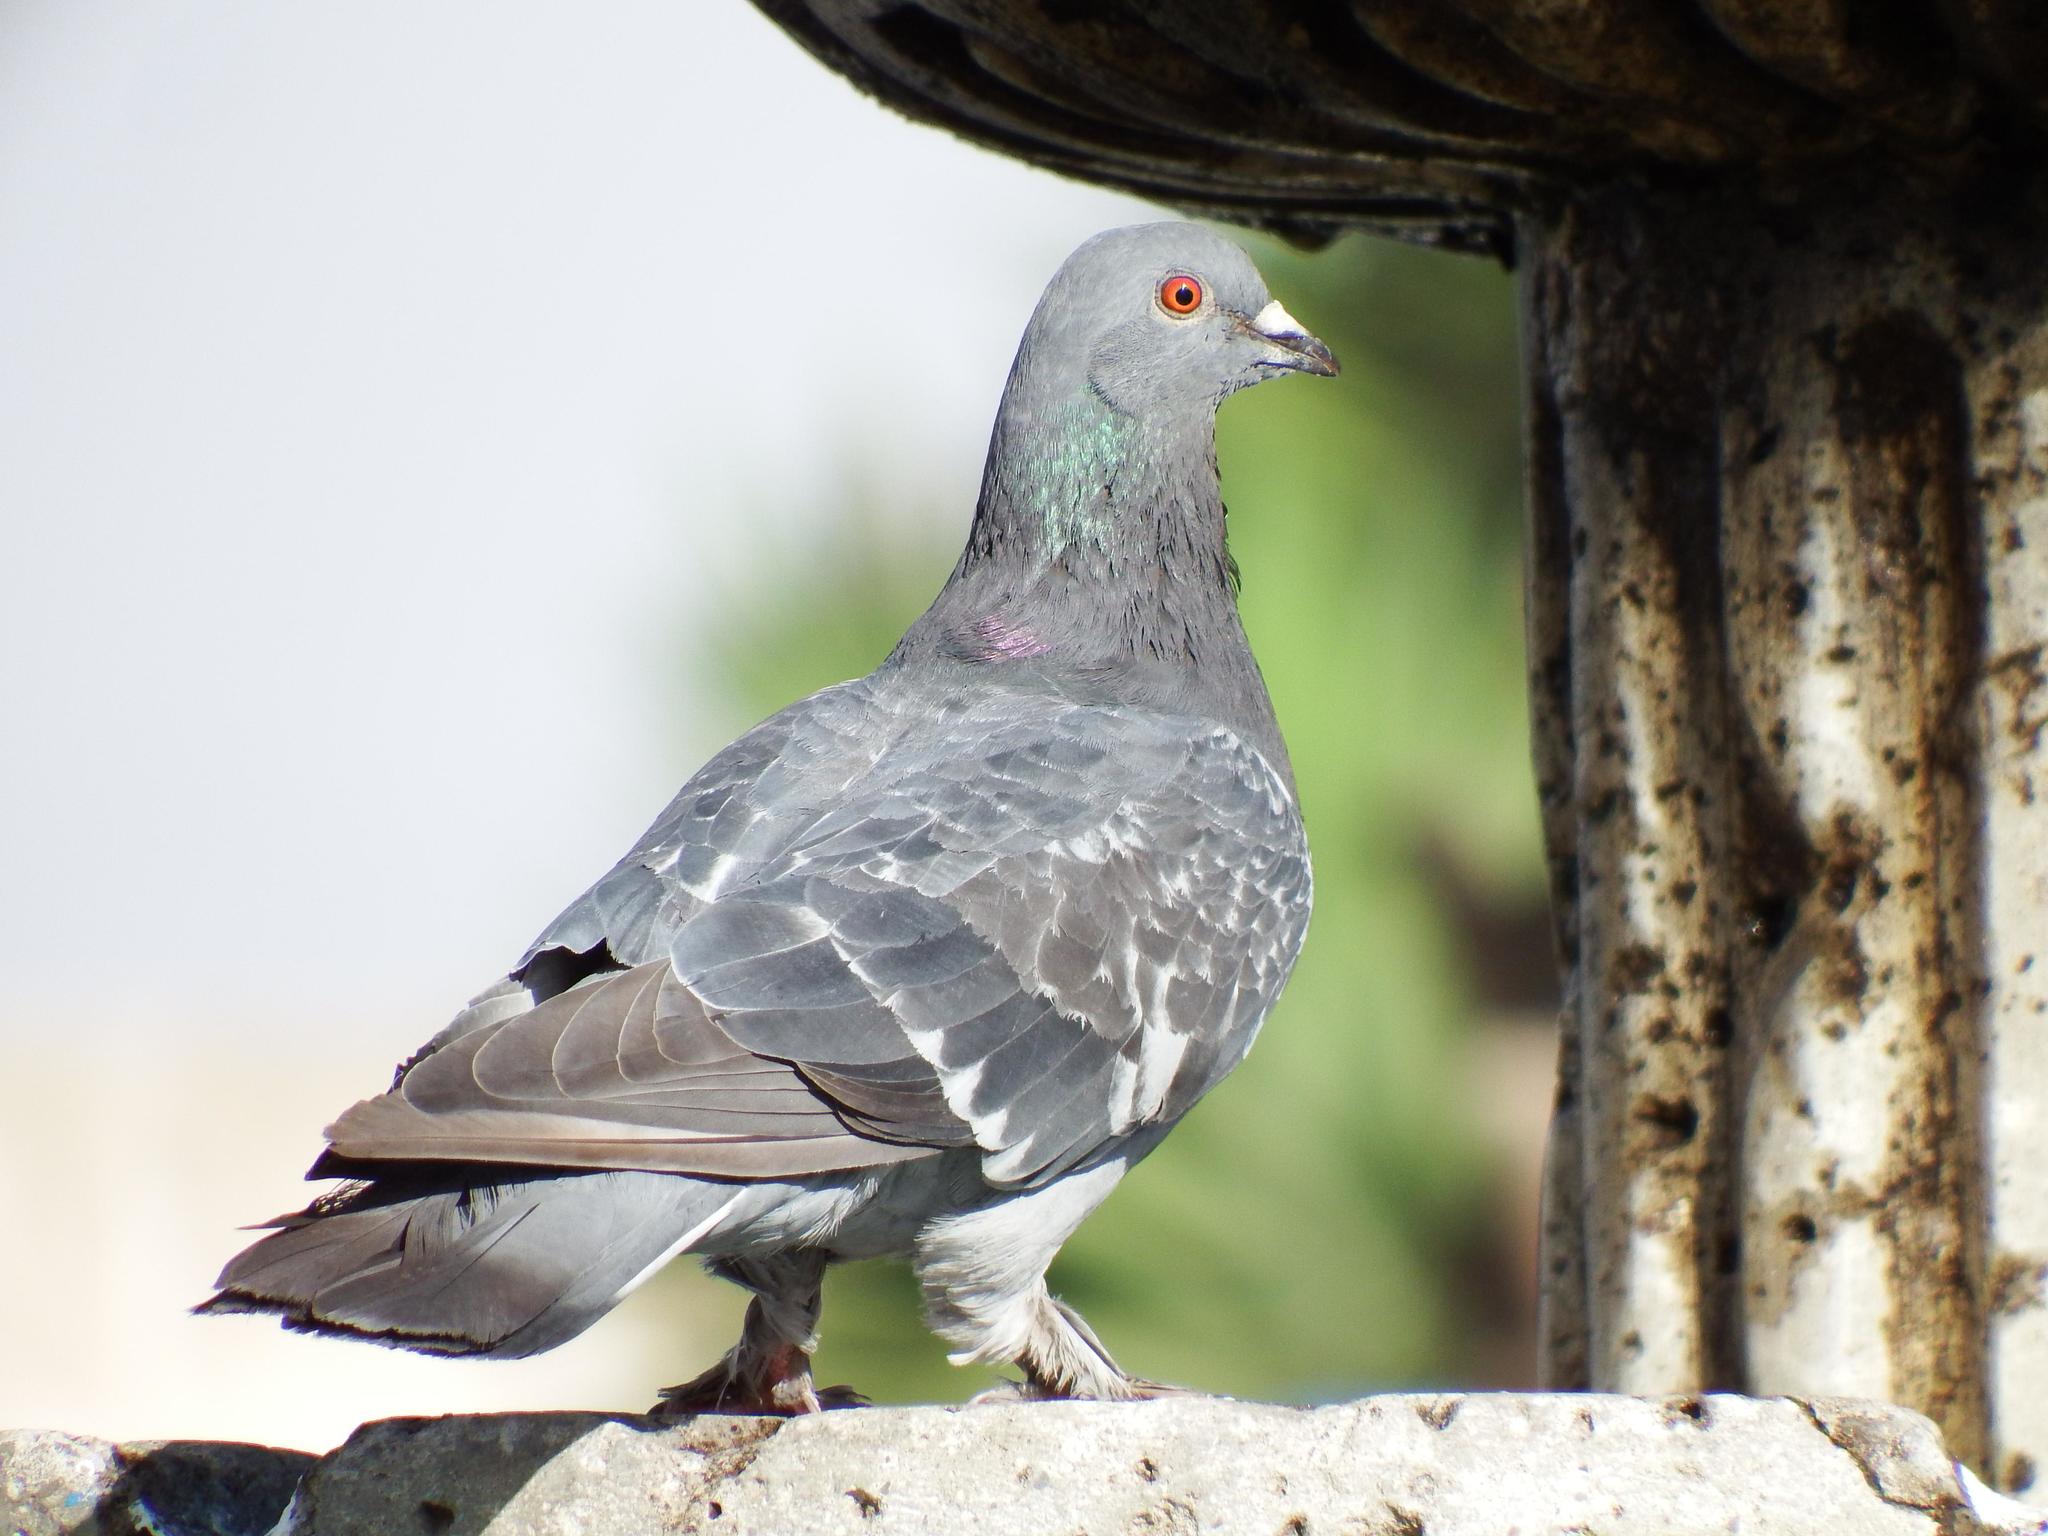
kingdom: Animalia
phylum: Chordata
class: Aves
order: Columbiformes
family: Columbidae
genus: Columba
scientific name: Columba livia
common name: Rock pigeon
